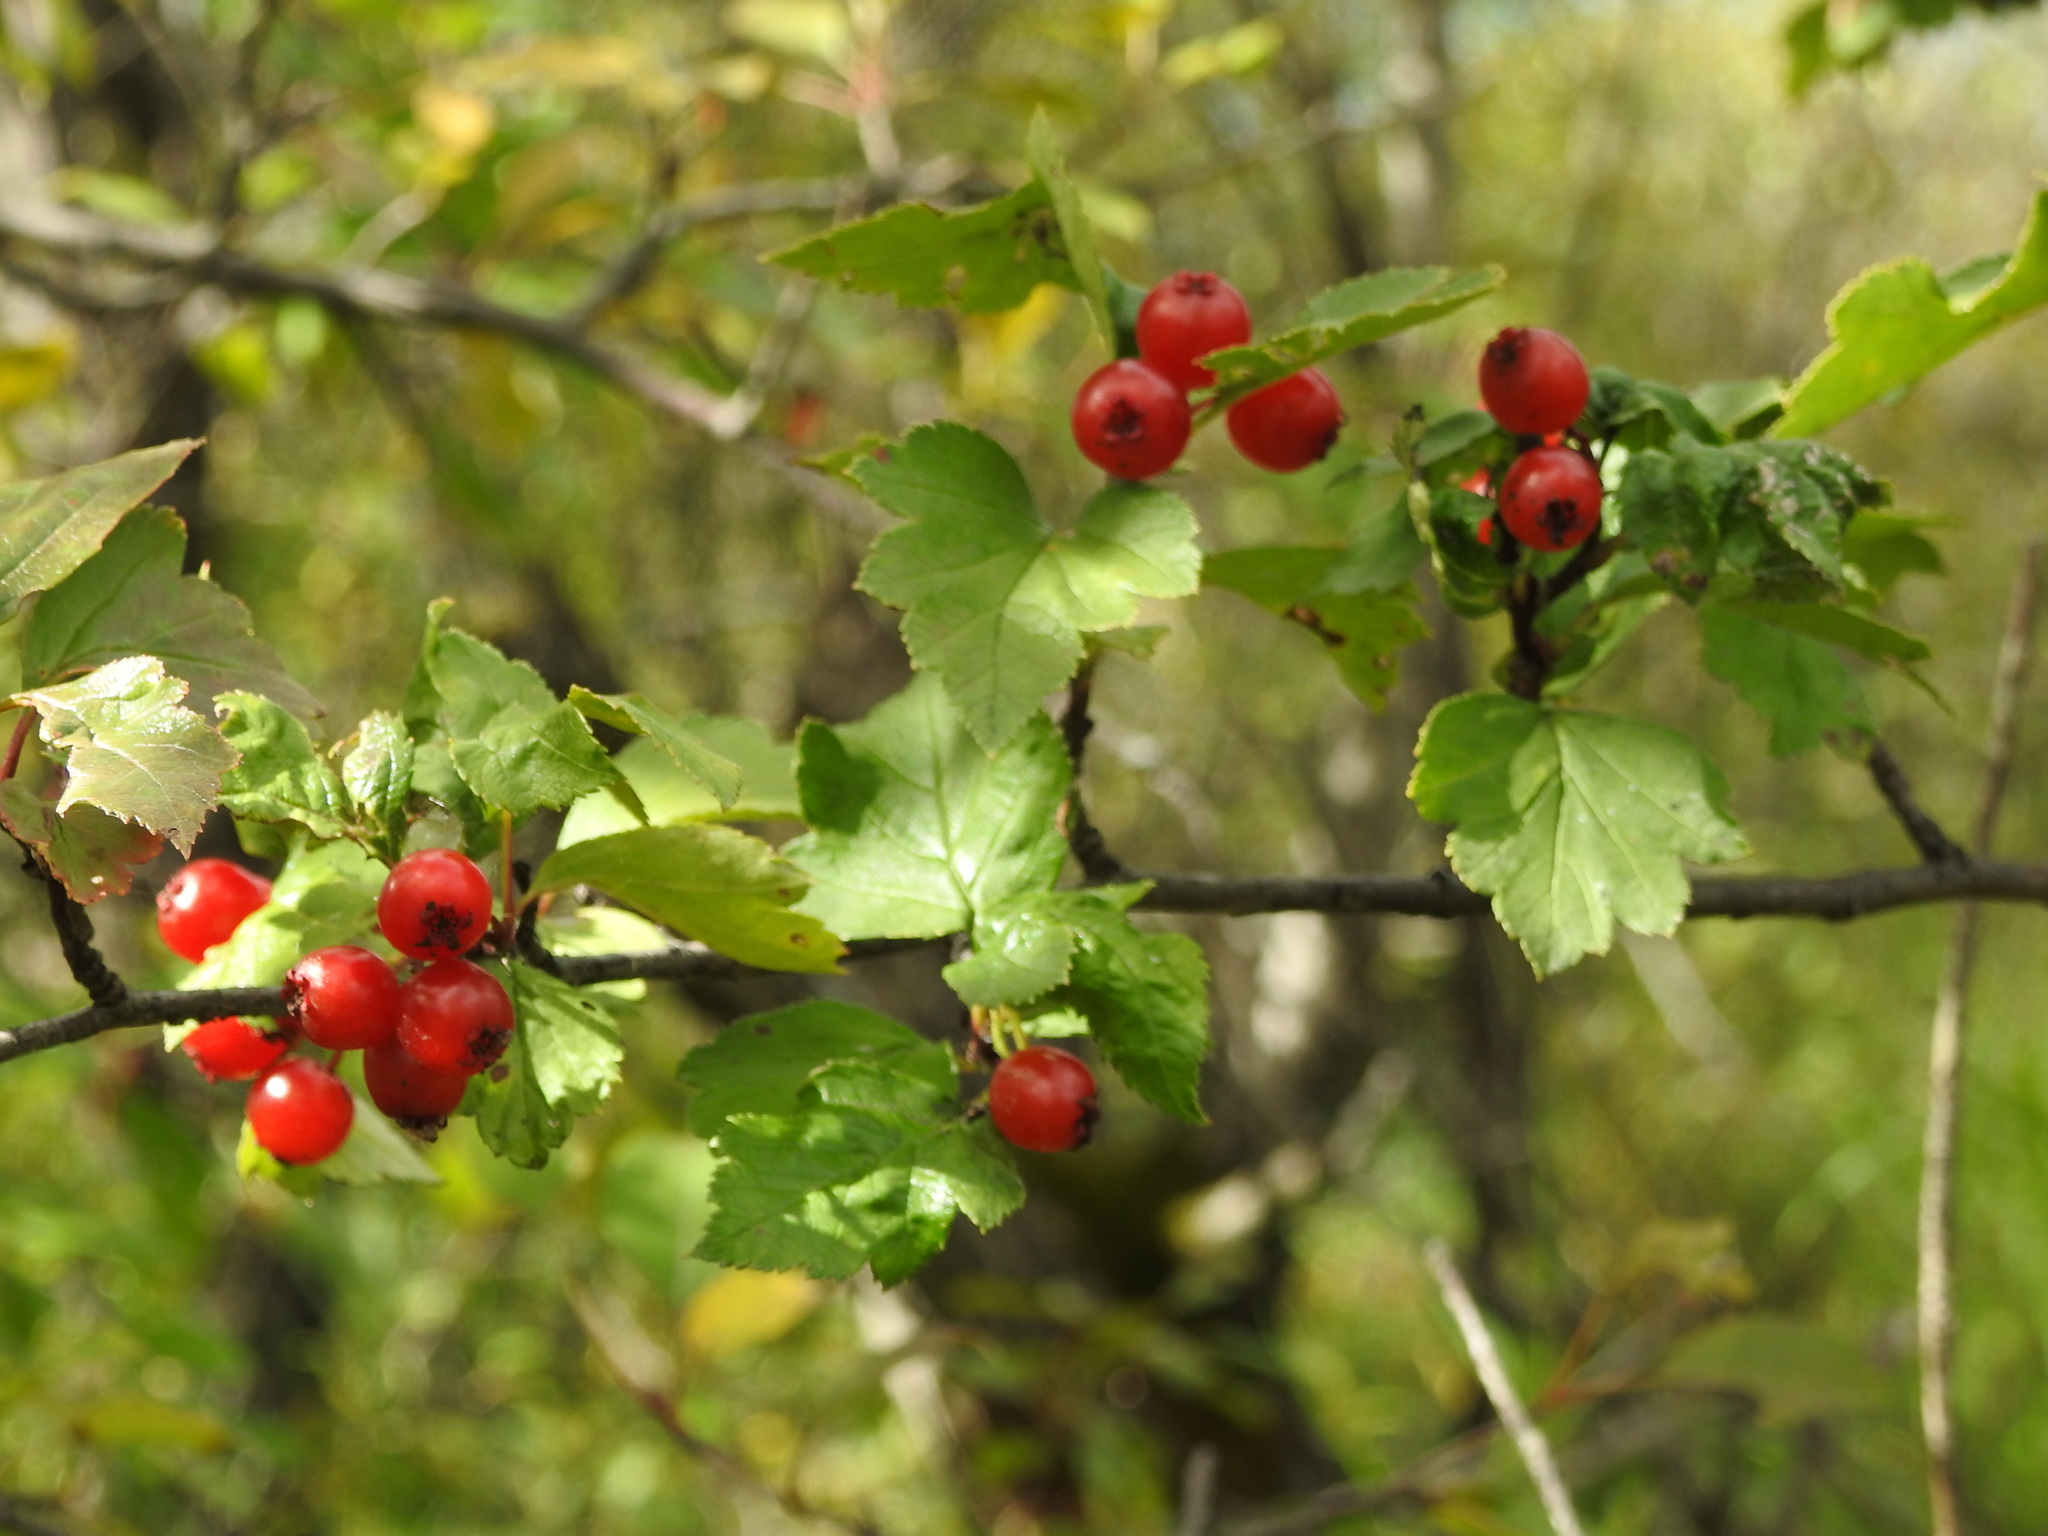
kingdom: Plantae
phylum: Tracheophyta
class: Magnoliopsida
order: Rosales
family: Rosaceae
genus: Crataegus
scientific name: Crataegus sanguinea
